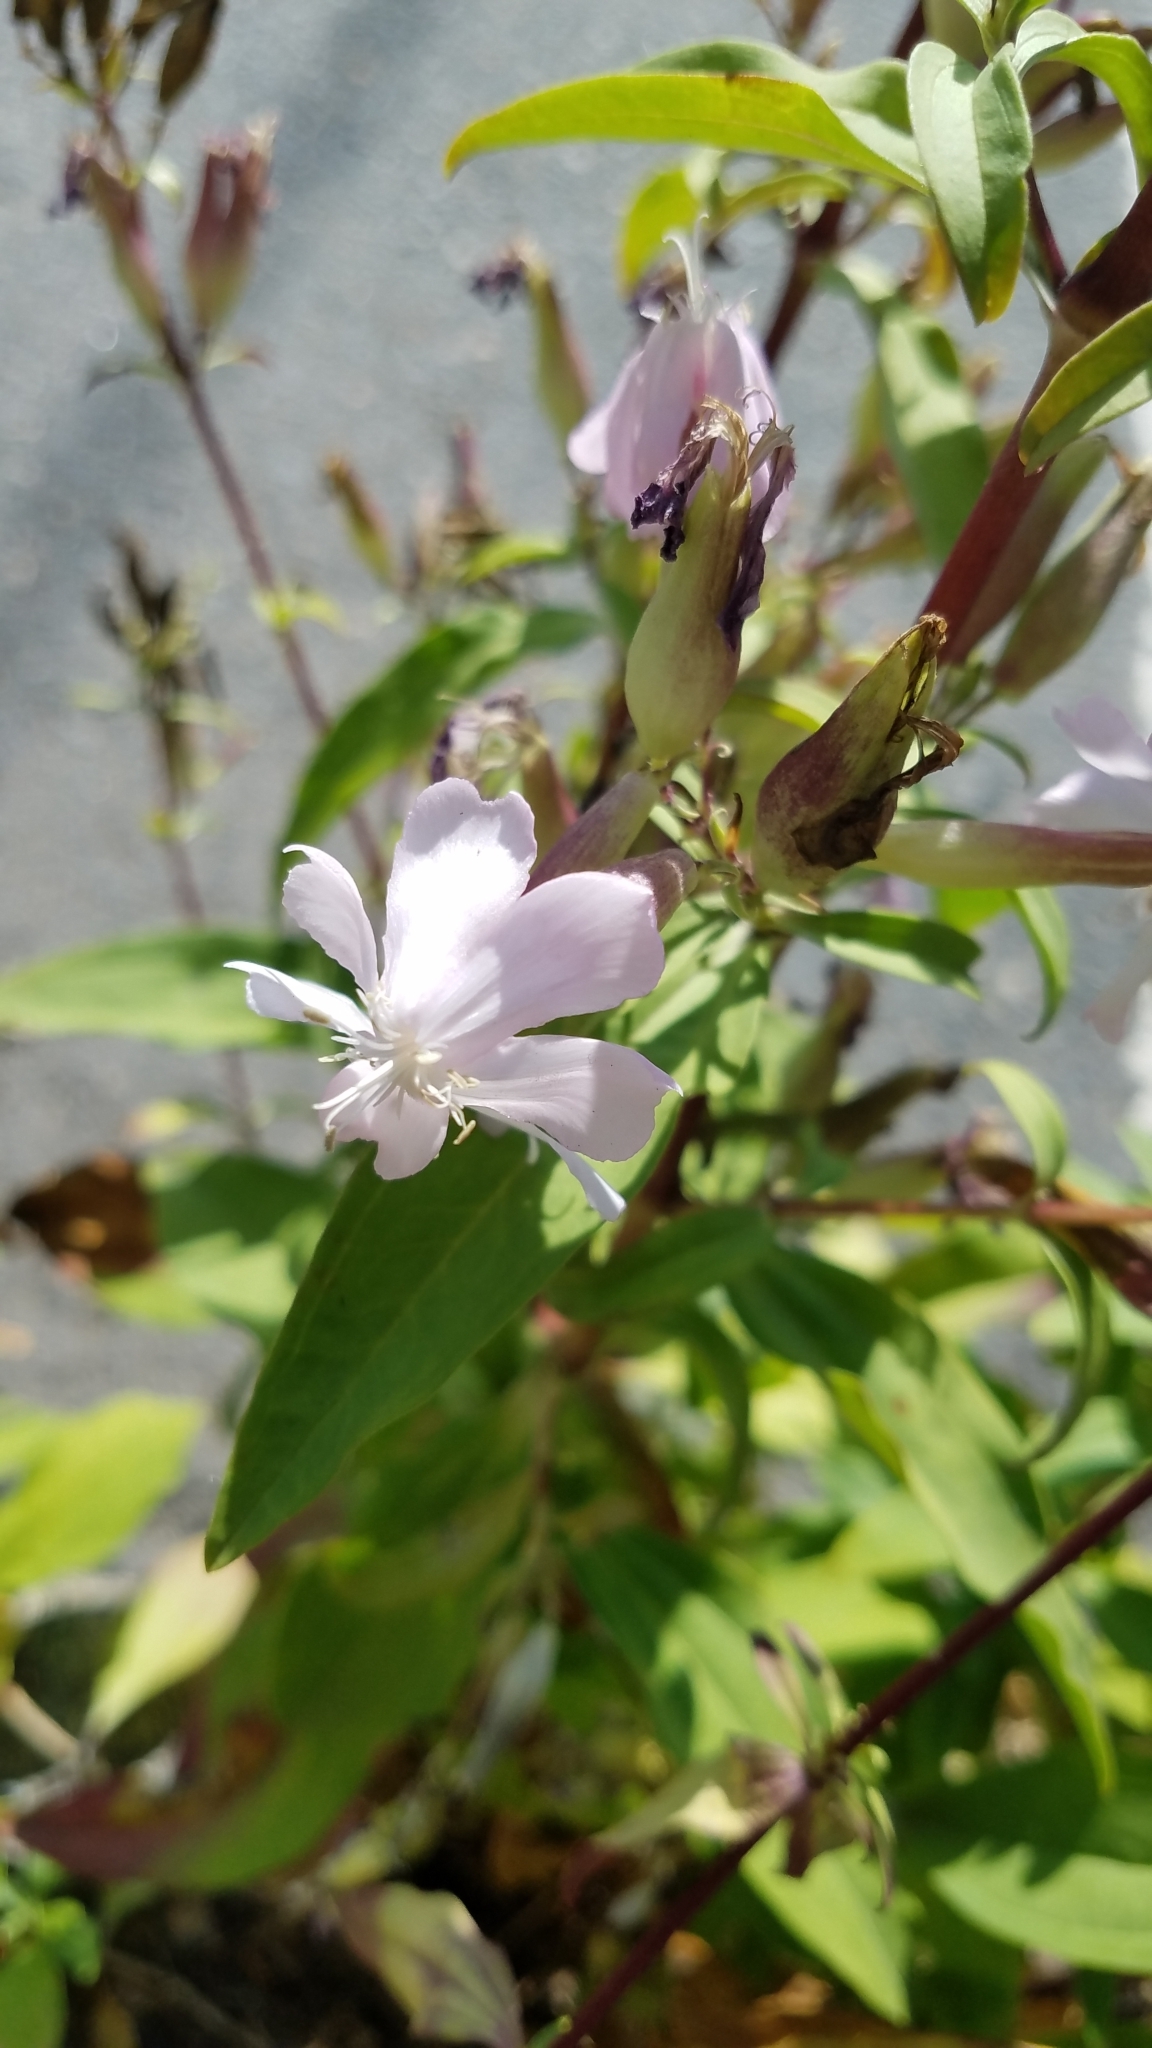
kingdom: Plantae
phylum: Tracheophyta
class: Magnoliopsida
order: Caryophyllales
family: Caryophyllaceae
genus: Saponaria
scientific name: Saponaria officinalis
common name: Soapwort
